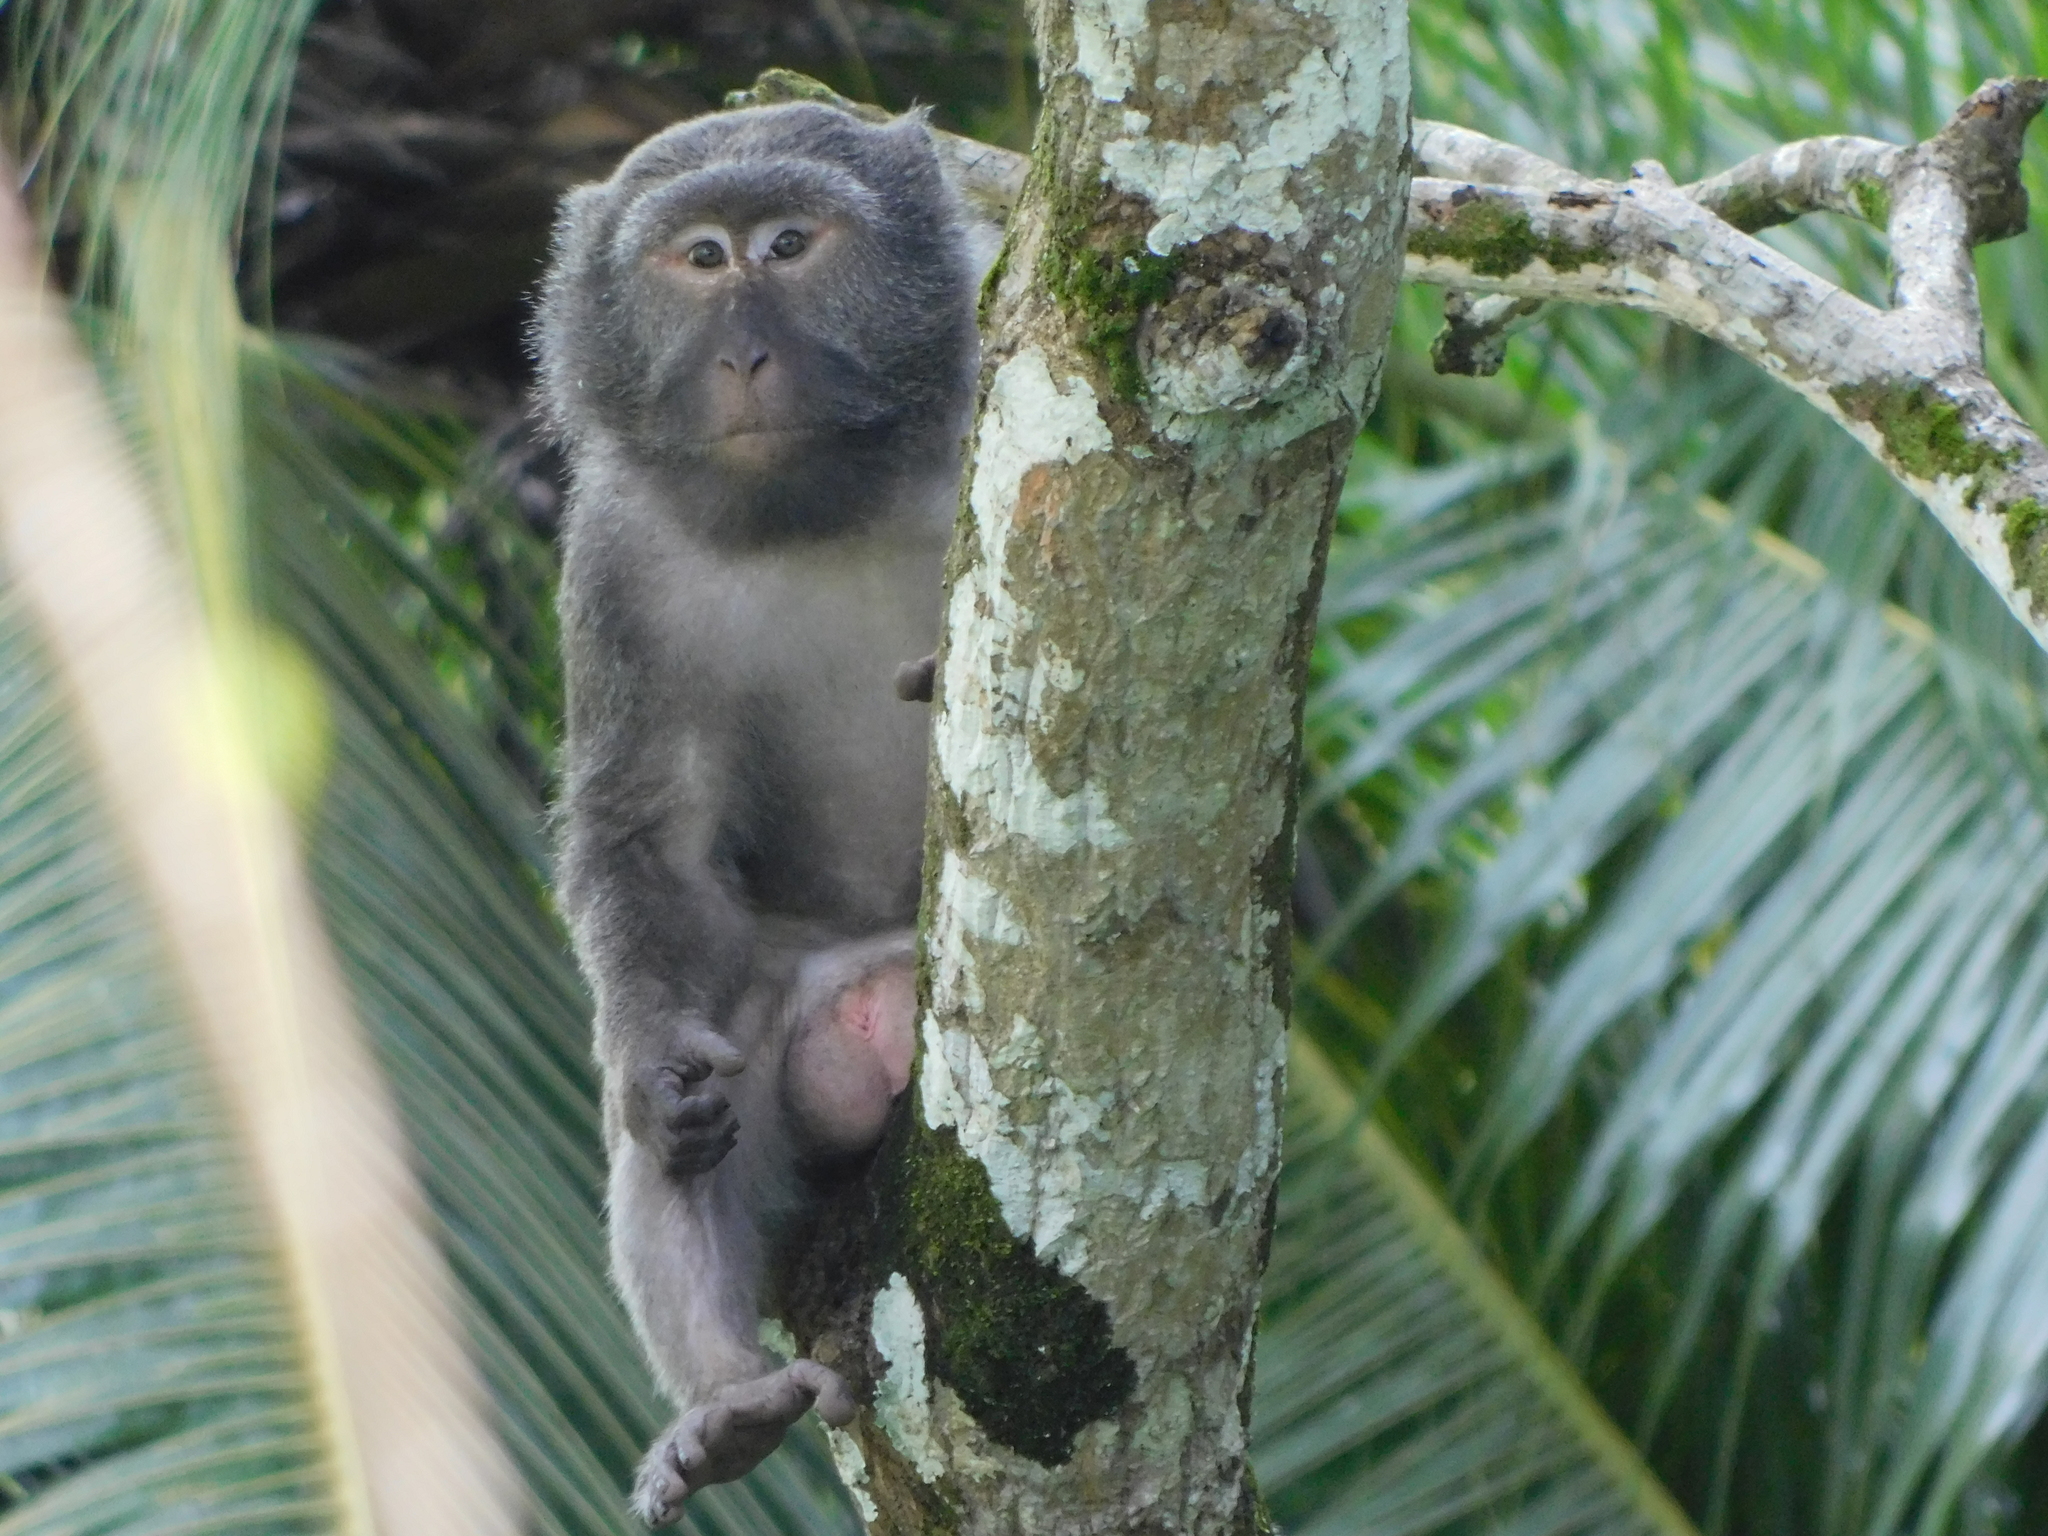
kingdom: Animalia
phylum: Chordata
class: Mammalia
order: Primates
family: Cercopithecidae
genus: Macaca
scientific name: Macaca fascicularis
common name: Crab-eating macaque
